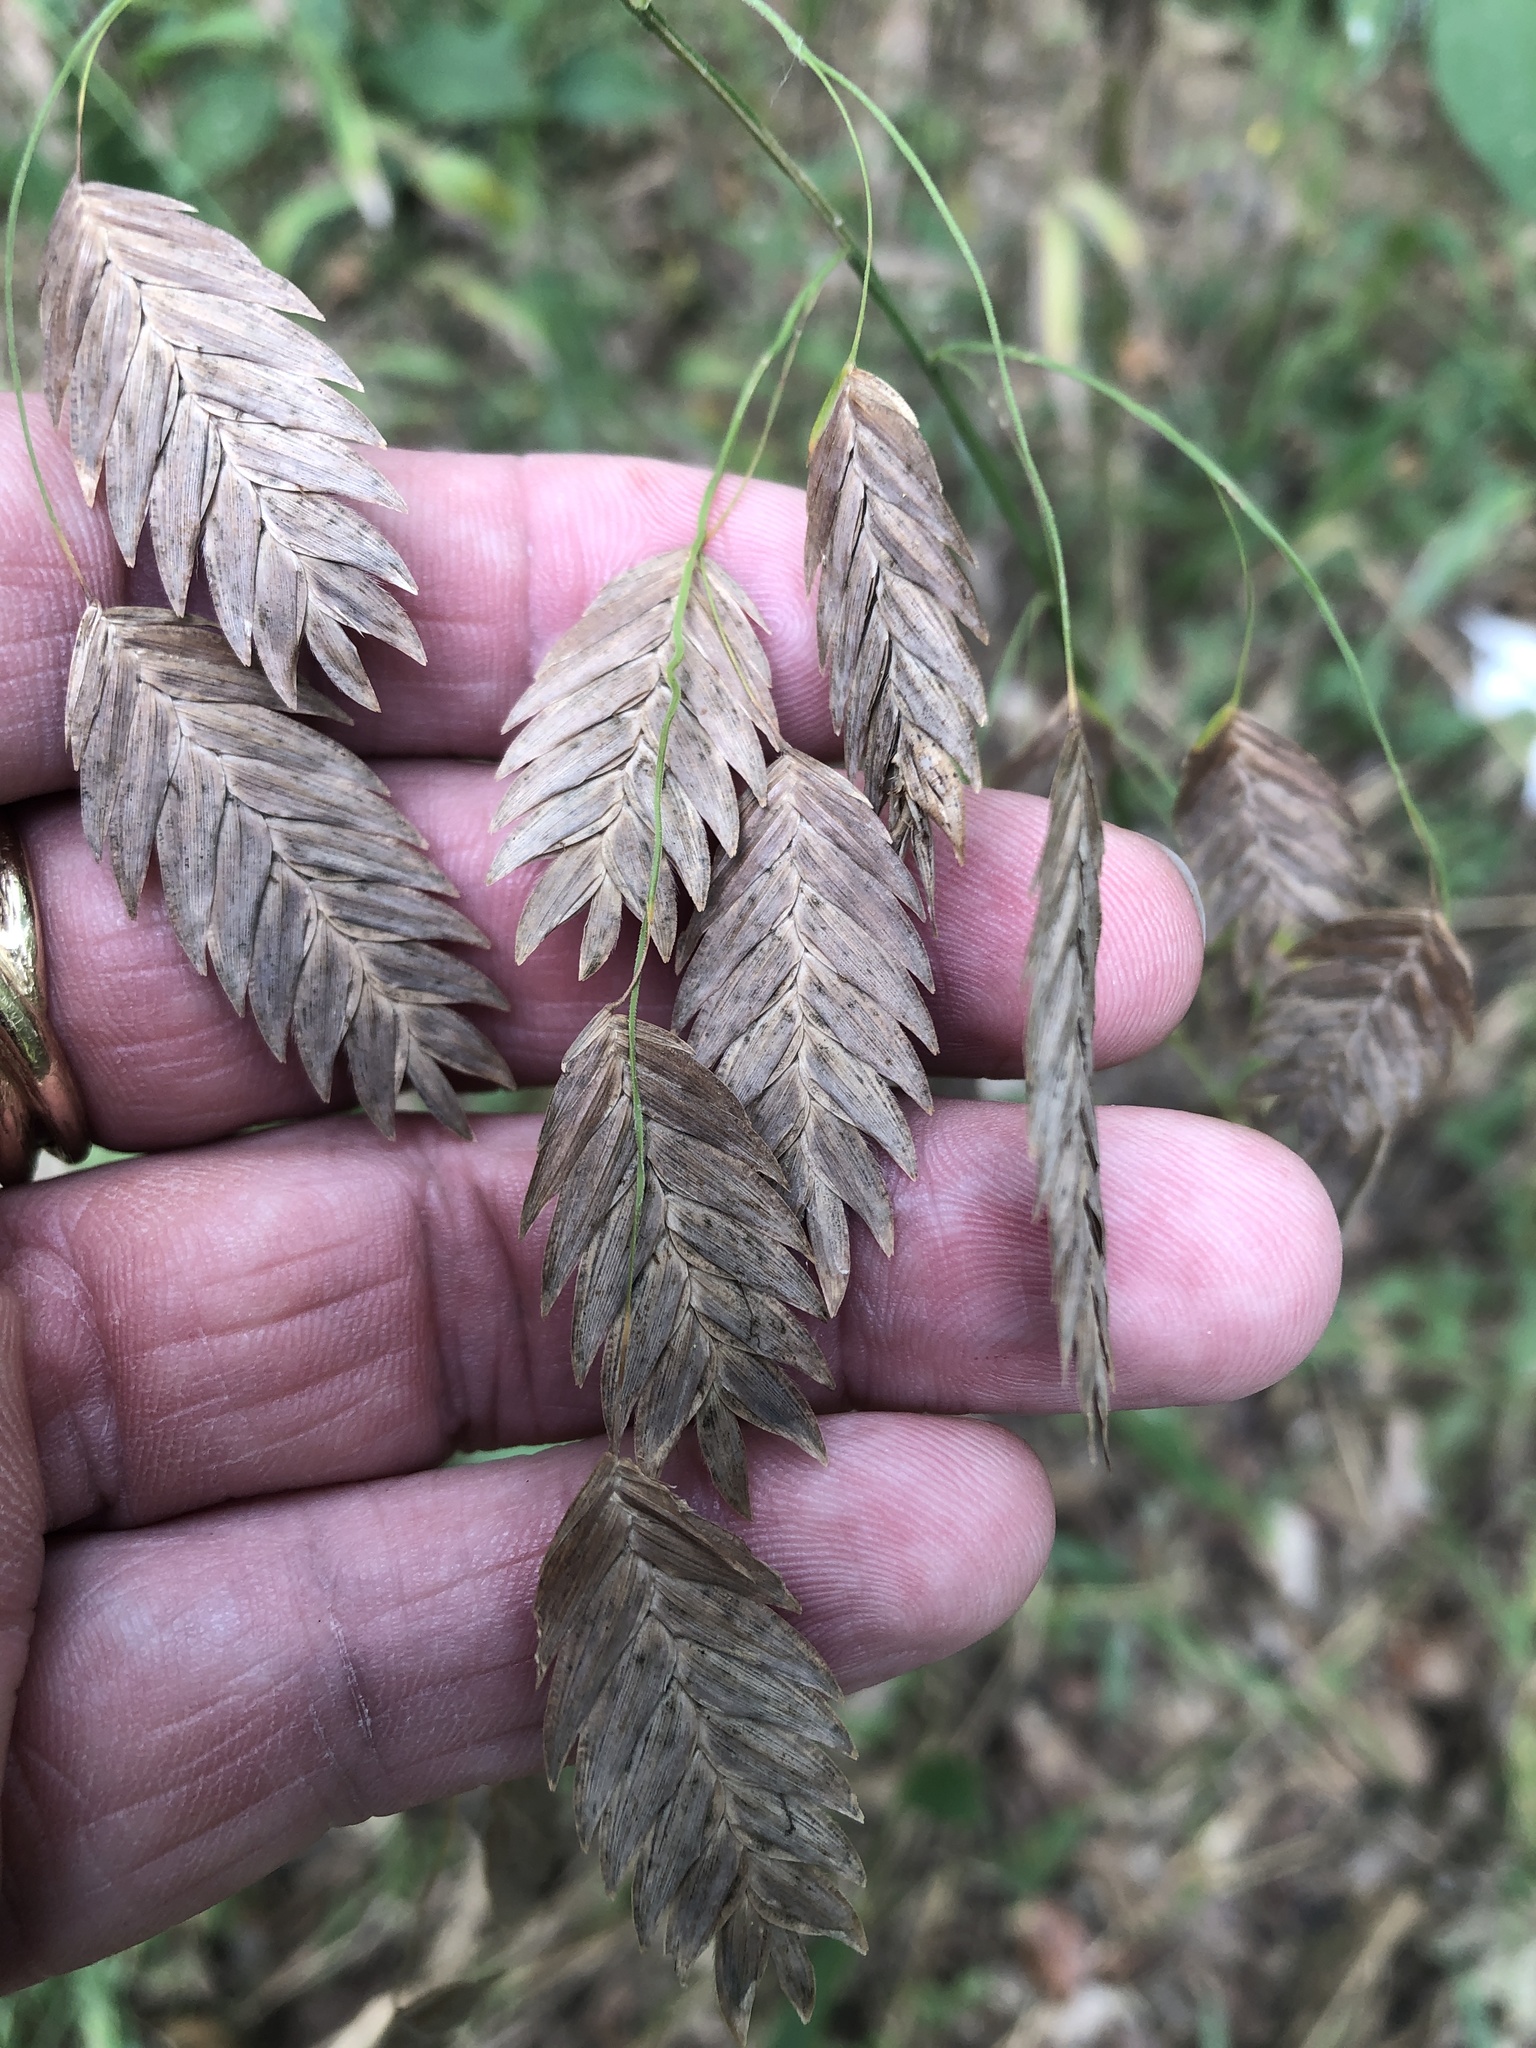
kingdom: Plantae
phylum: Tracheophyta
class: Liliopsida
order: Poales
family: Poaceae
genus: Chasmanthium
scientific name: Chasmanthium latifolium
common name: Broad-leaved chasmanthium
